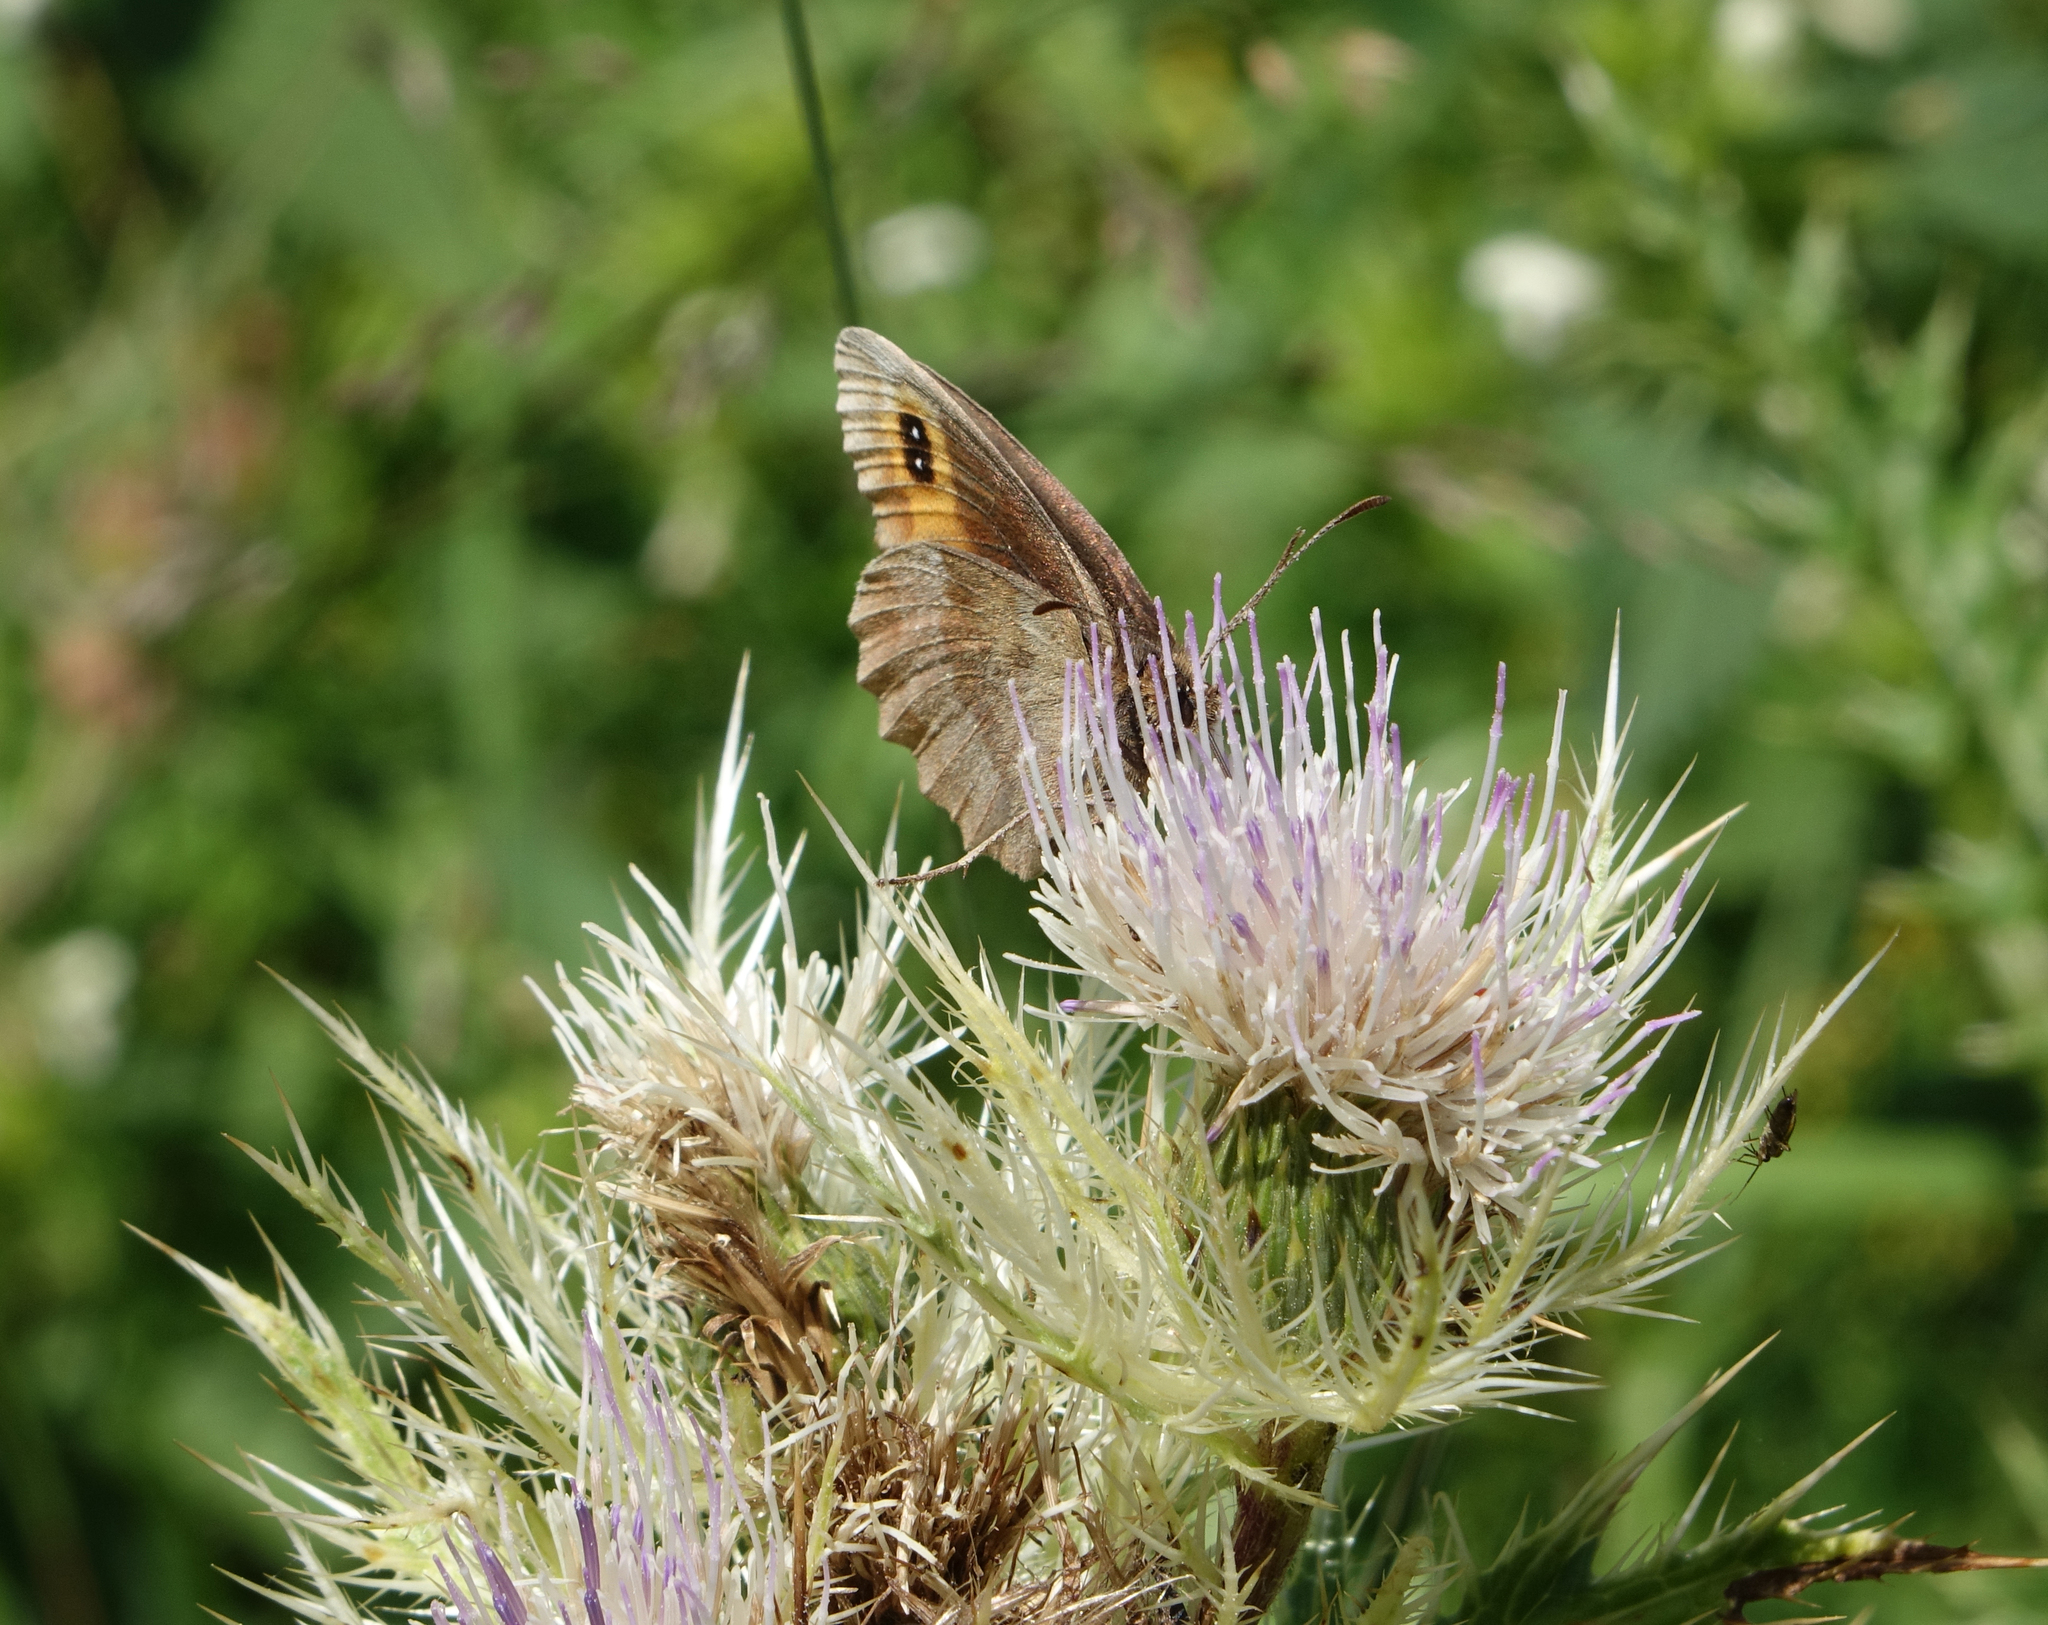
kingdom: Animalia
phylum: Arthropoda
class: Insecta
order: Lepidoptera
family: Nymphalidae
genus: Erebia
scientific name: Erebia aethiops
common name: Scotch argus
